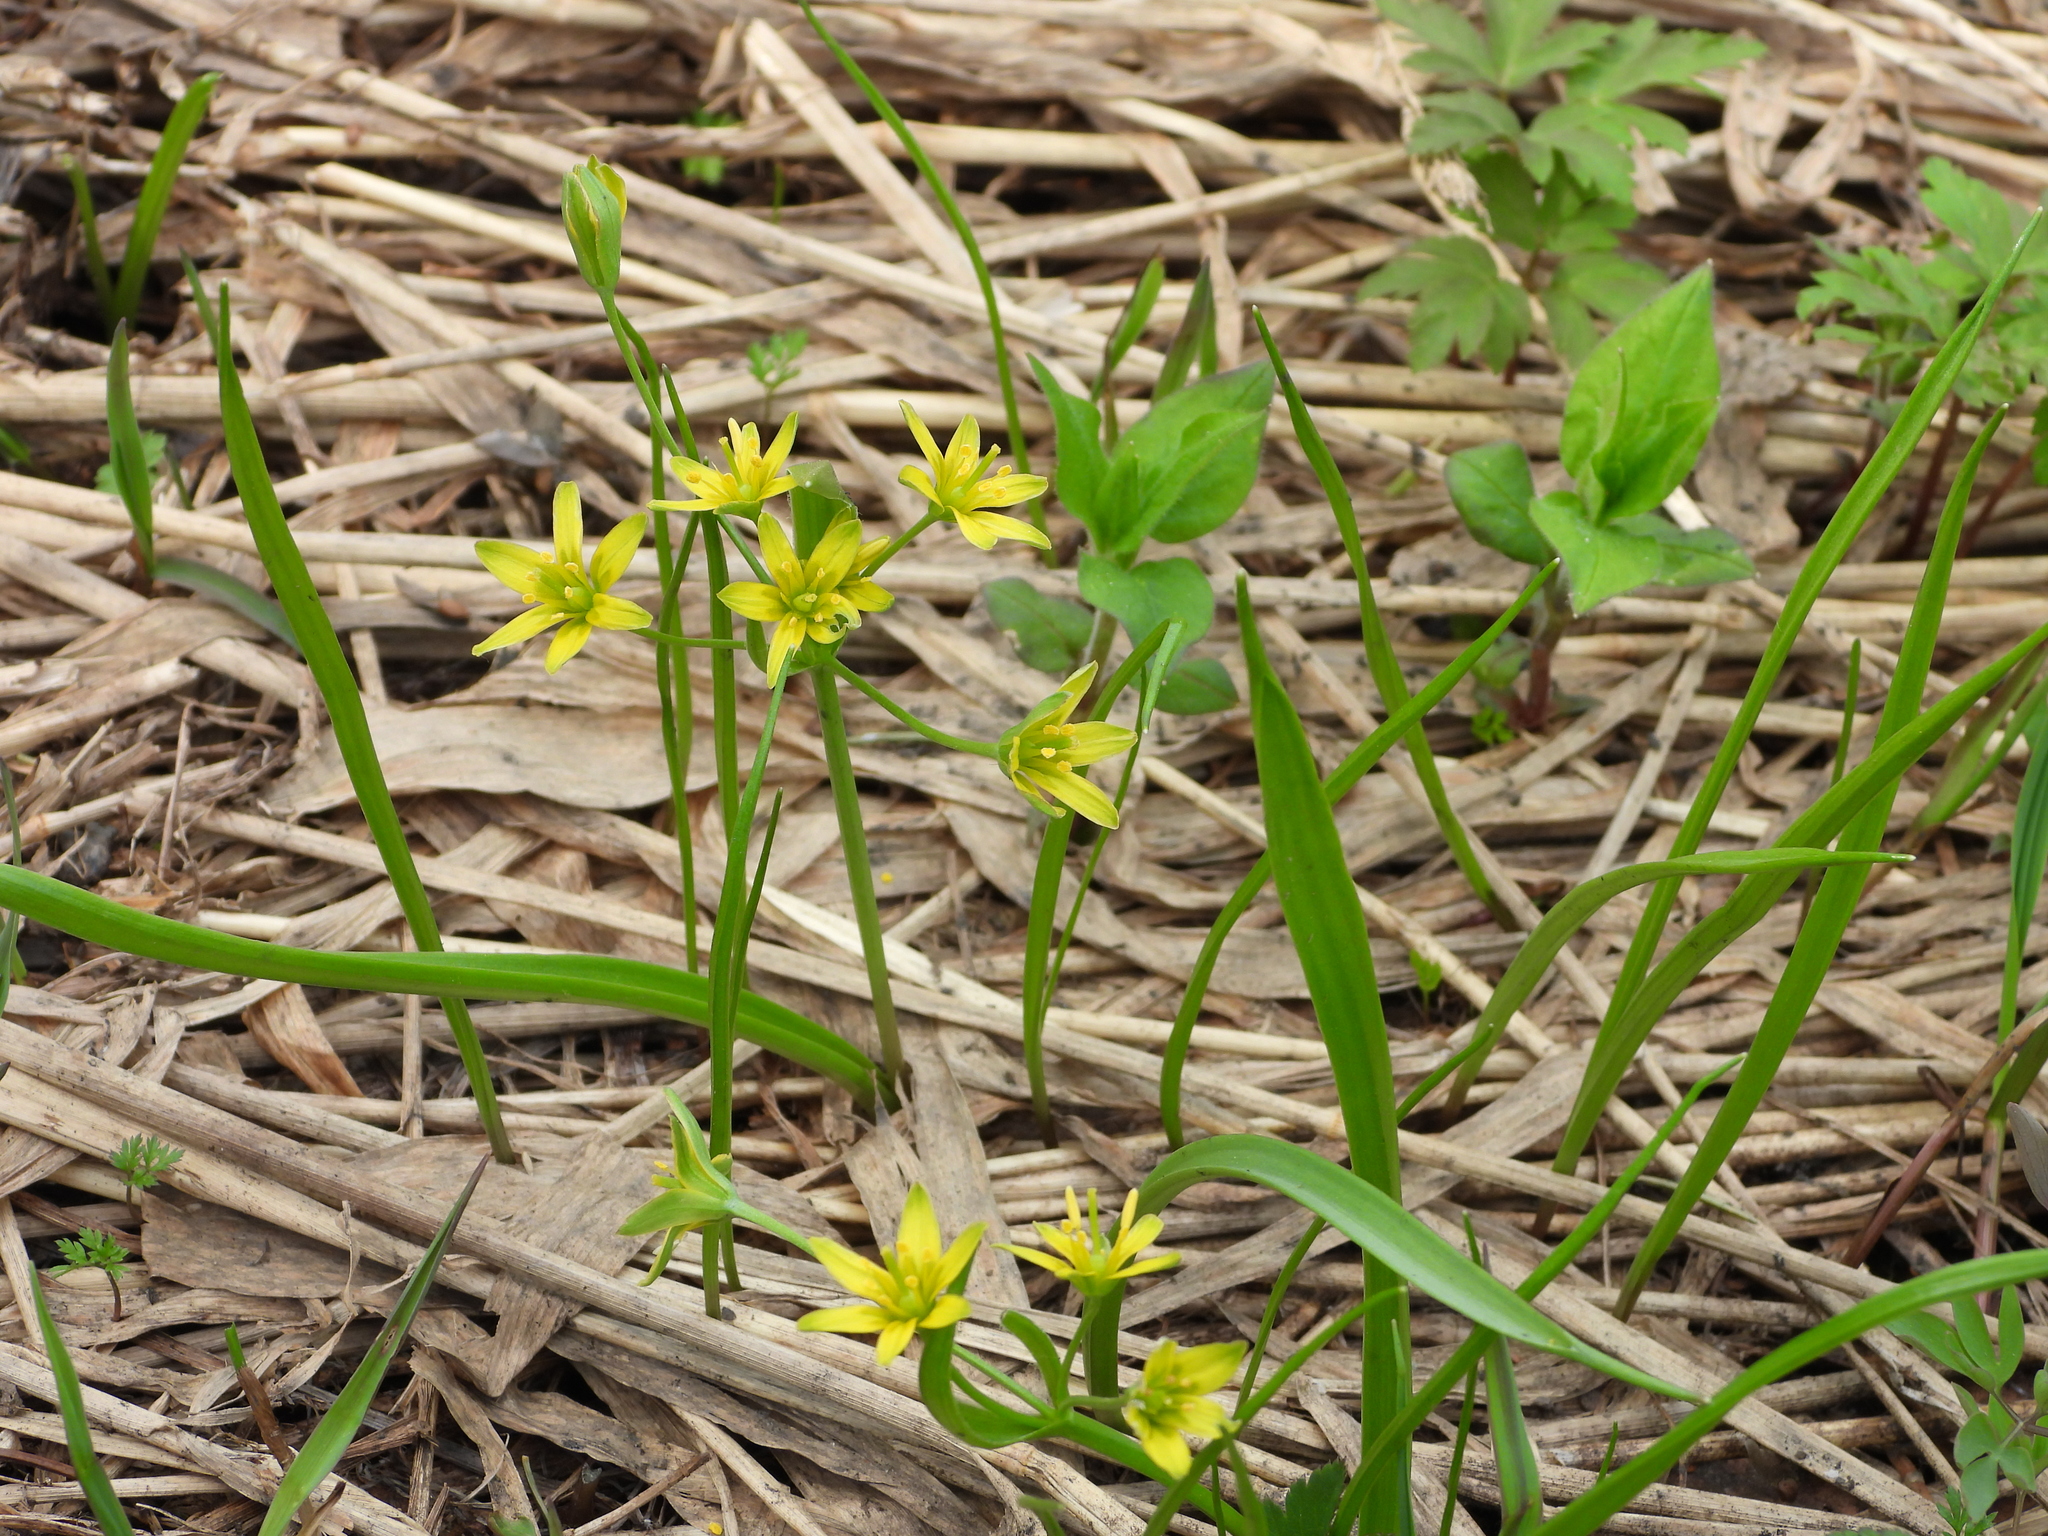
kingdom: Plantae
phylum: Tracheophyta
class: Liliopsida
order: Liliales
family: Liliaceae
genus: Gagea
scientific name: Gagea lutea
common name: Yellow star-of-bethlehem
